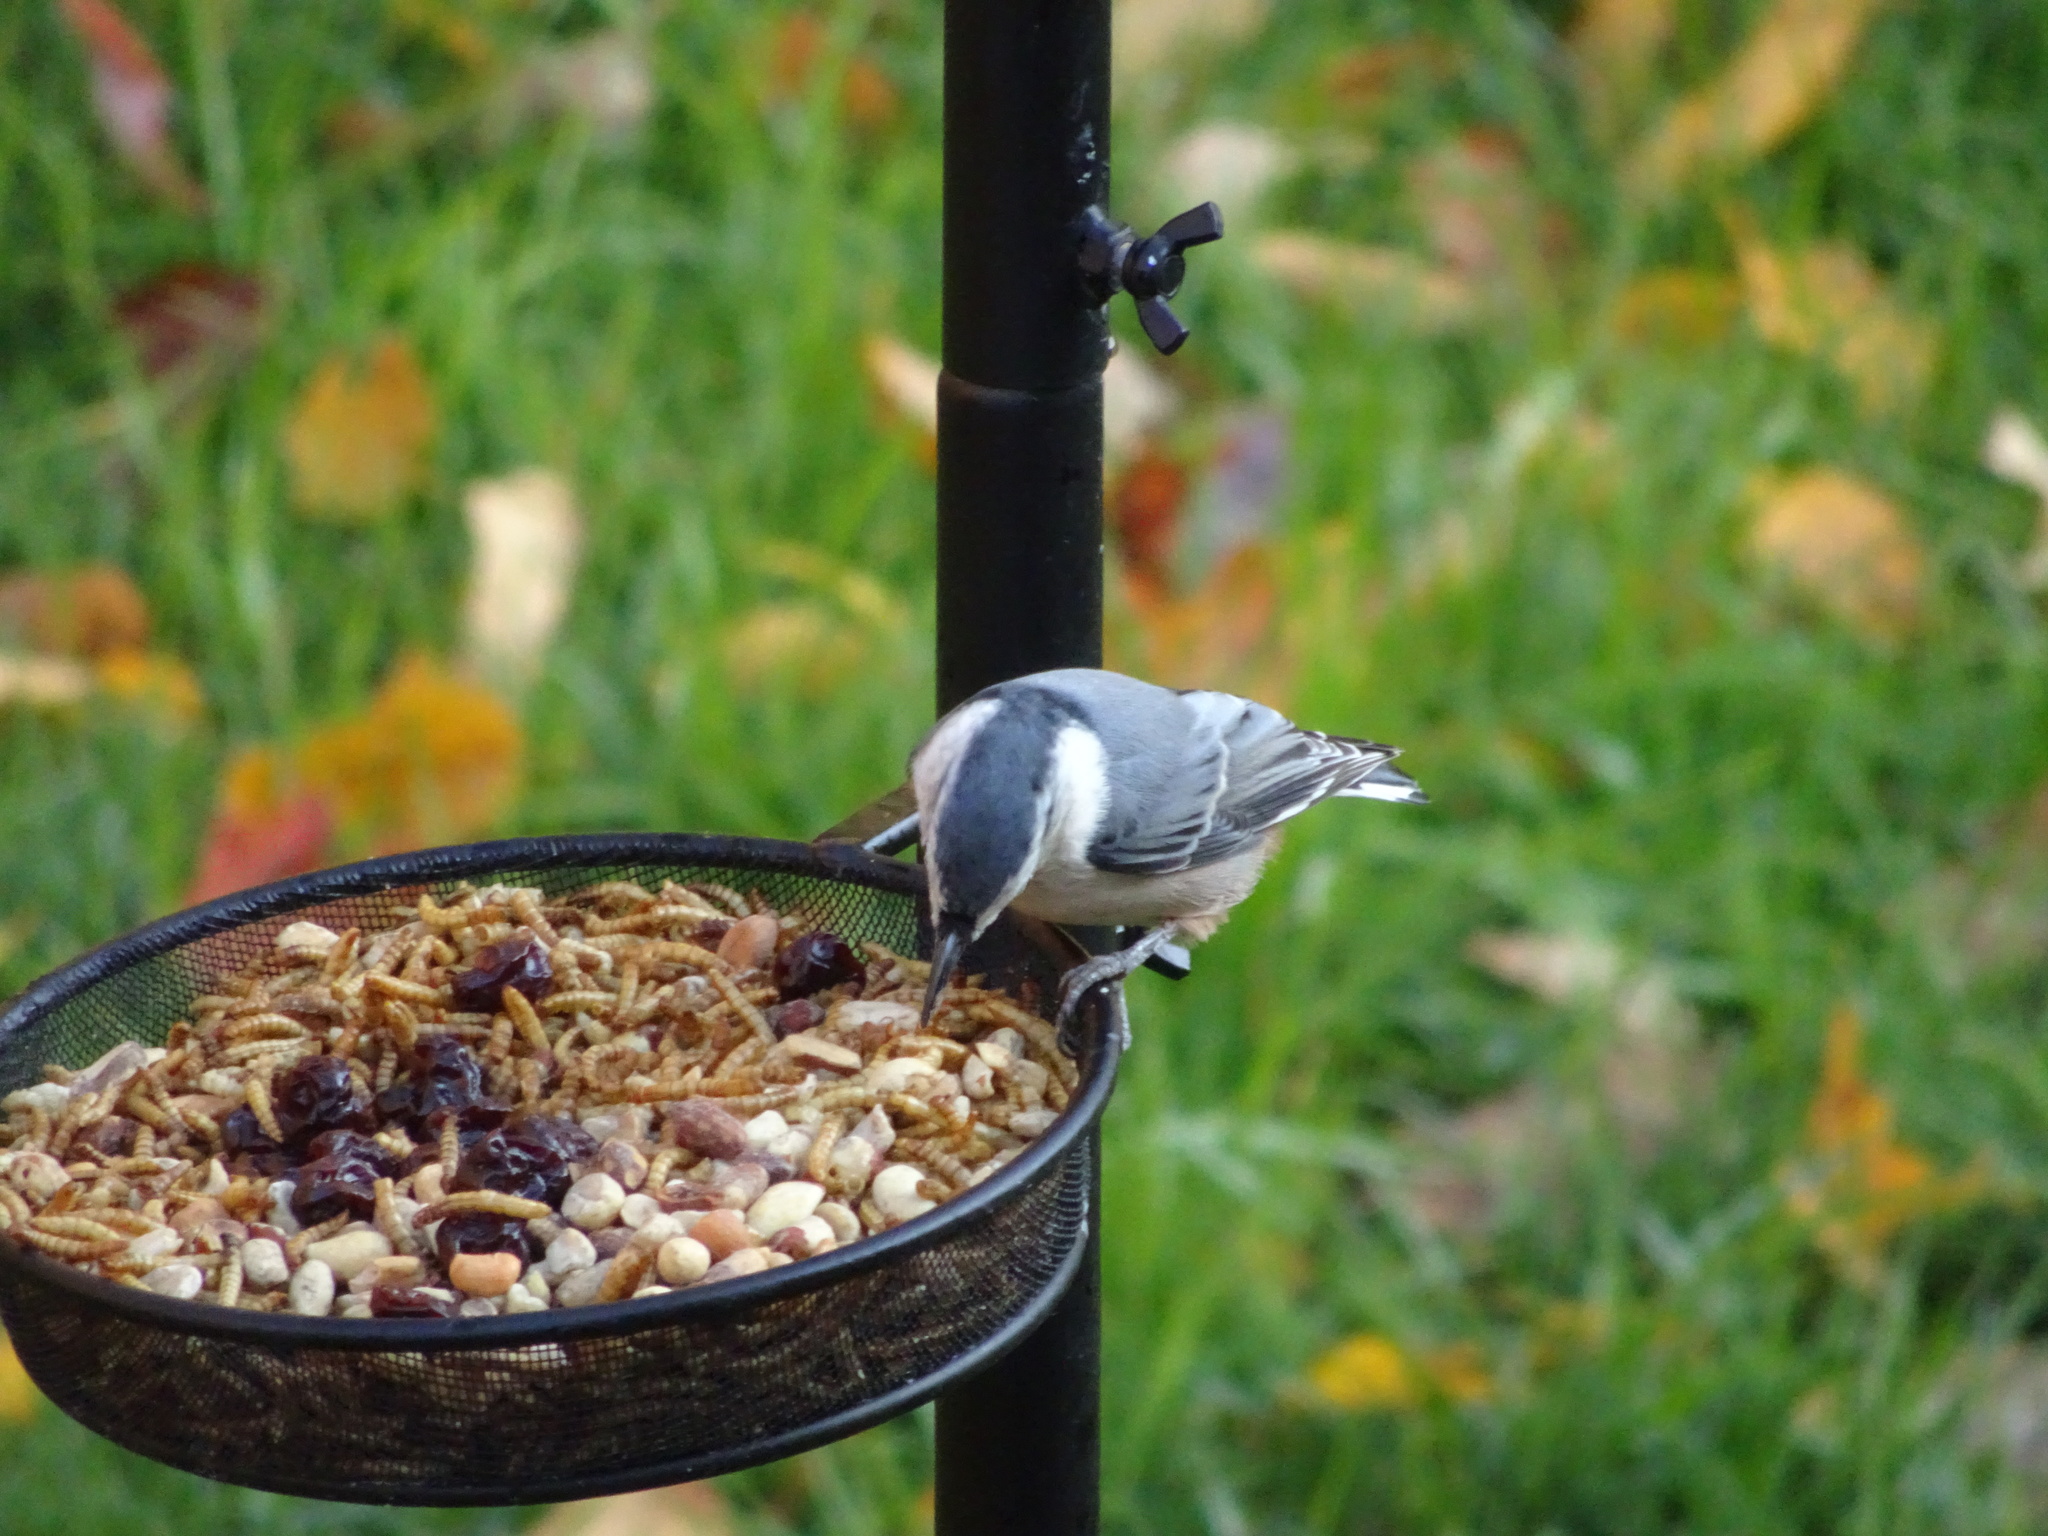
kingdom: Animalia
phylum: Chordata
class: Aves
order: Passeriformes
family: Sittidae
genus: Sitta
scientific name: Sitta carolinensis
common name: White-breasted nuthatch
